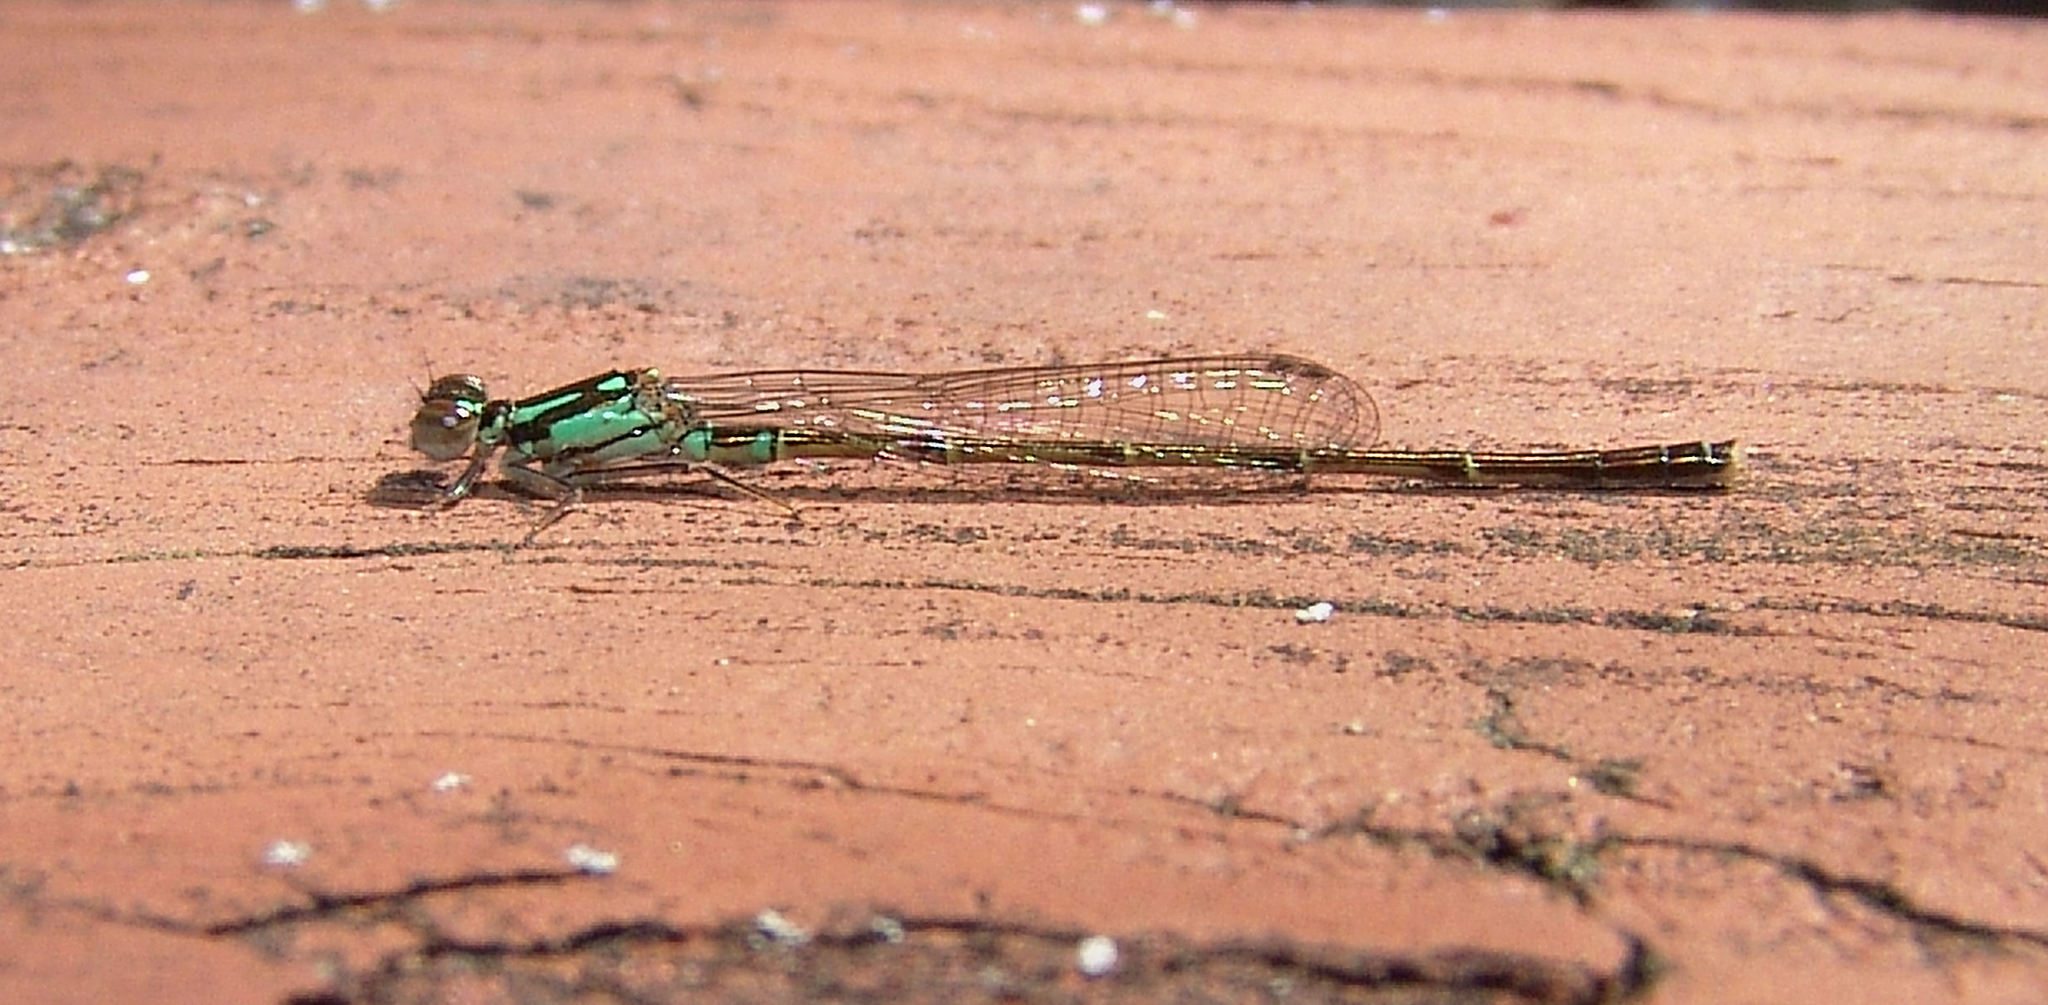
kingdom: Animalia
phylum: Arthropoda
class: Insecta
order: Odonata
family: Coenagrionidae
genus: Ischnura
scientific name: Ischnura posita
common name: Fragile forktail
